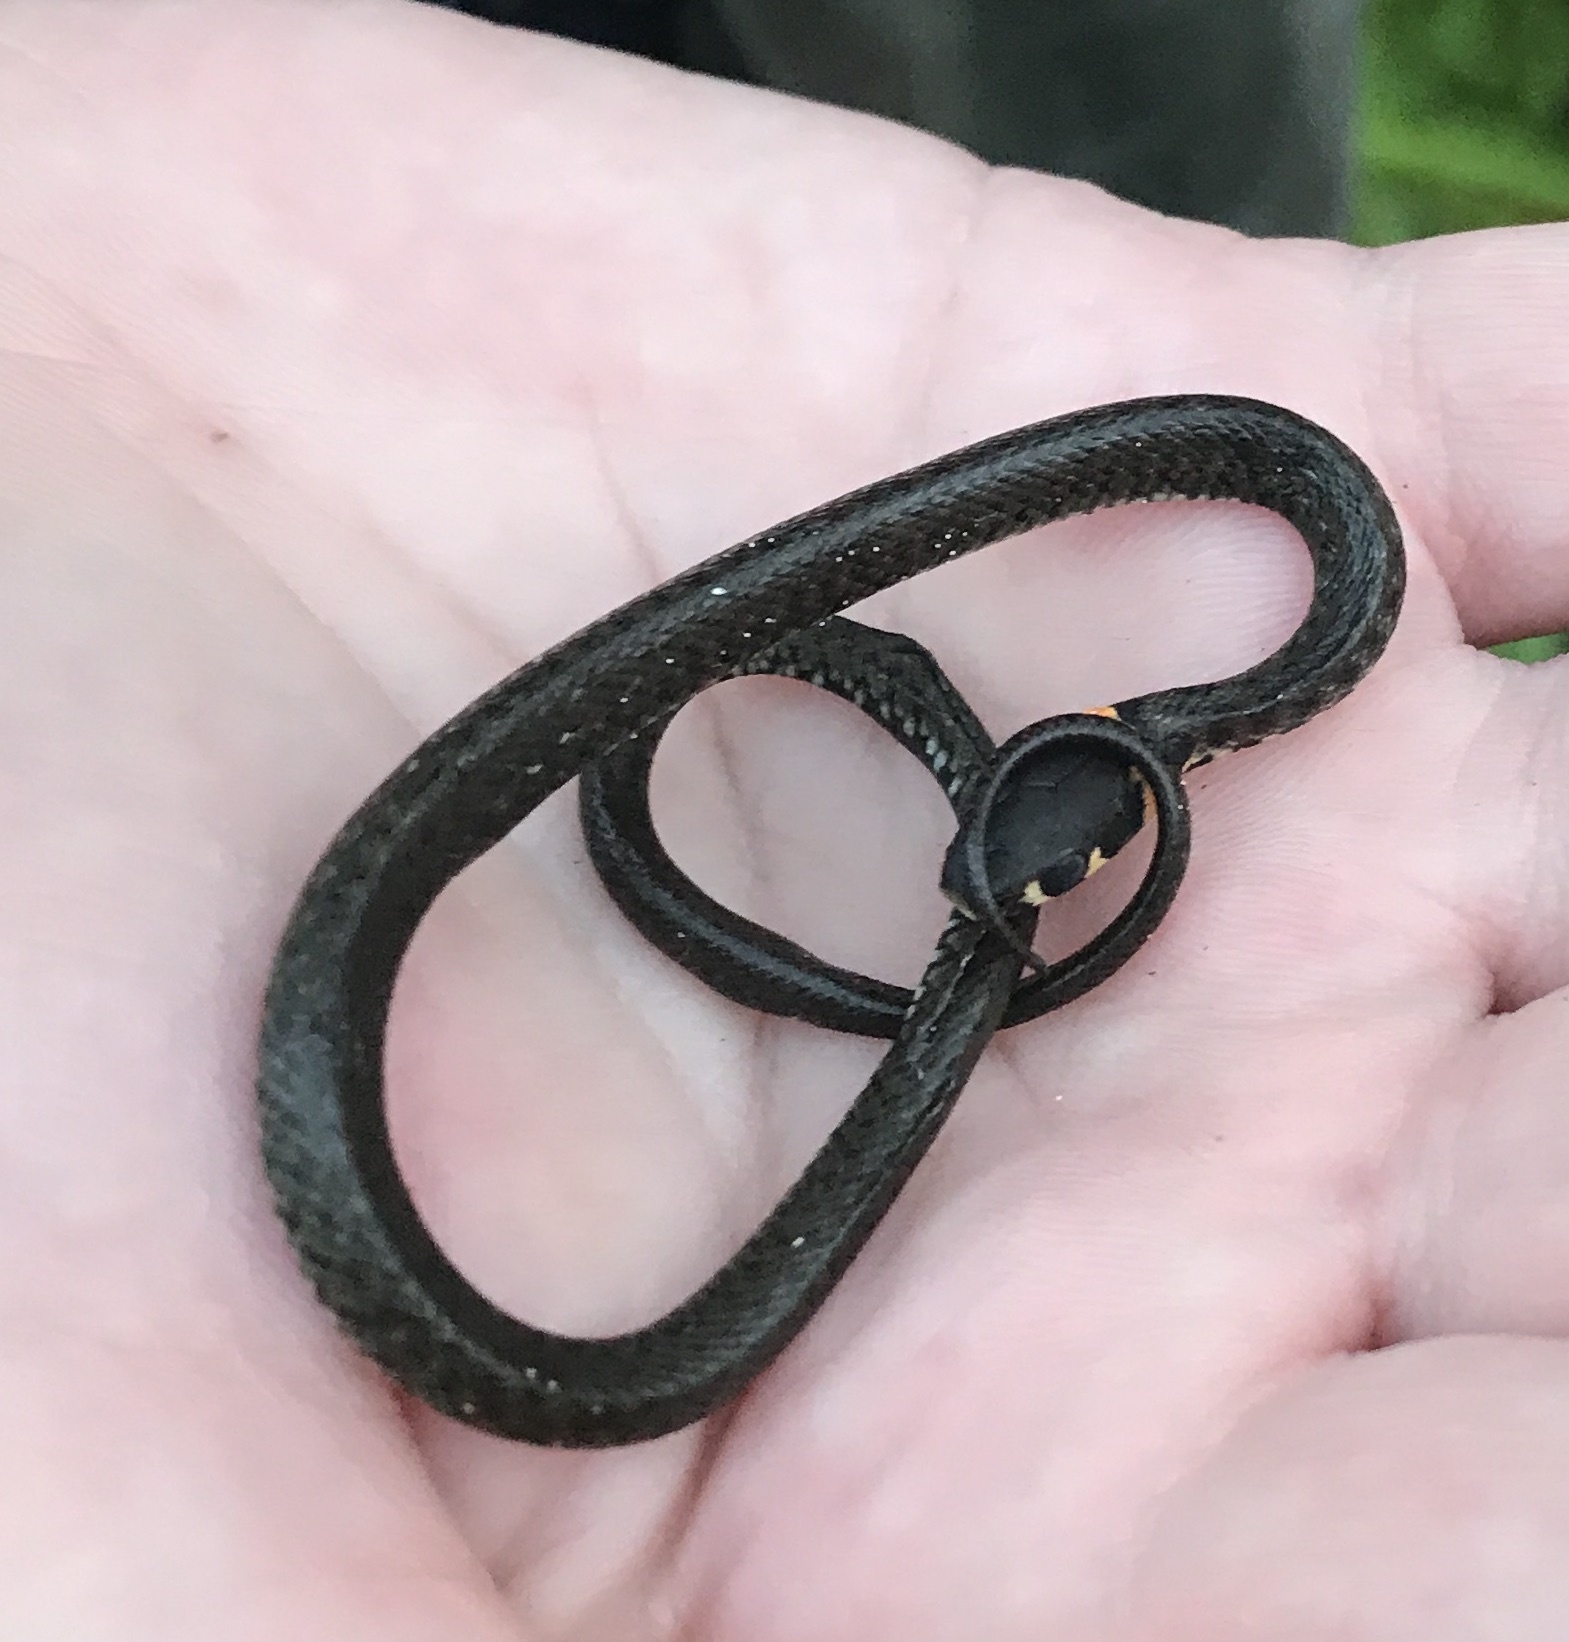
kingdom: Animalia
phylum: Chordata
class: Squamata
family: Colubridae
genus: Natrix
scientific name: Natrix natrix
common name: Grass snake
